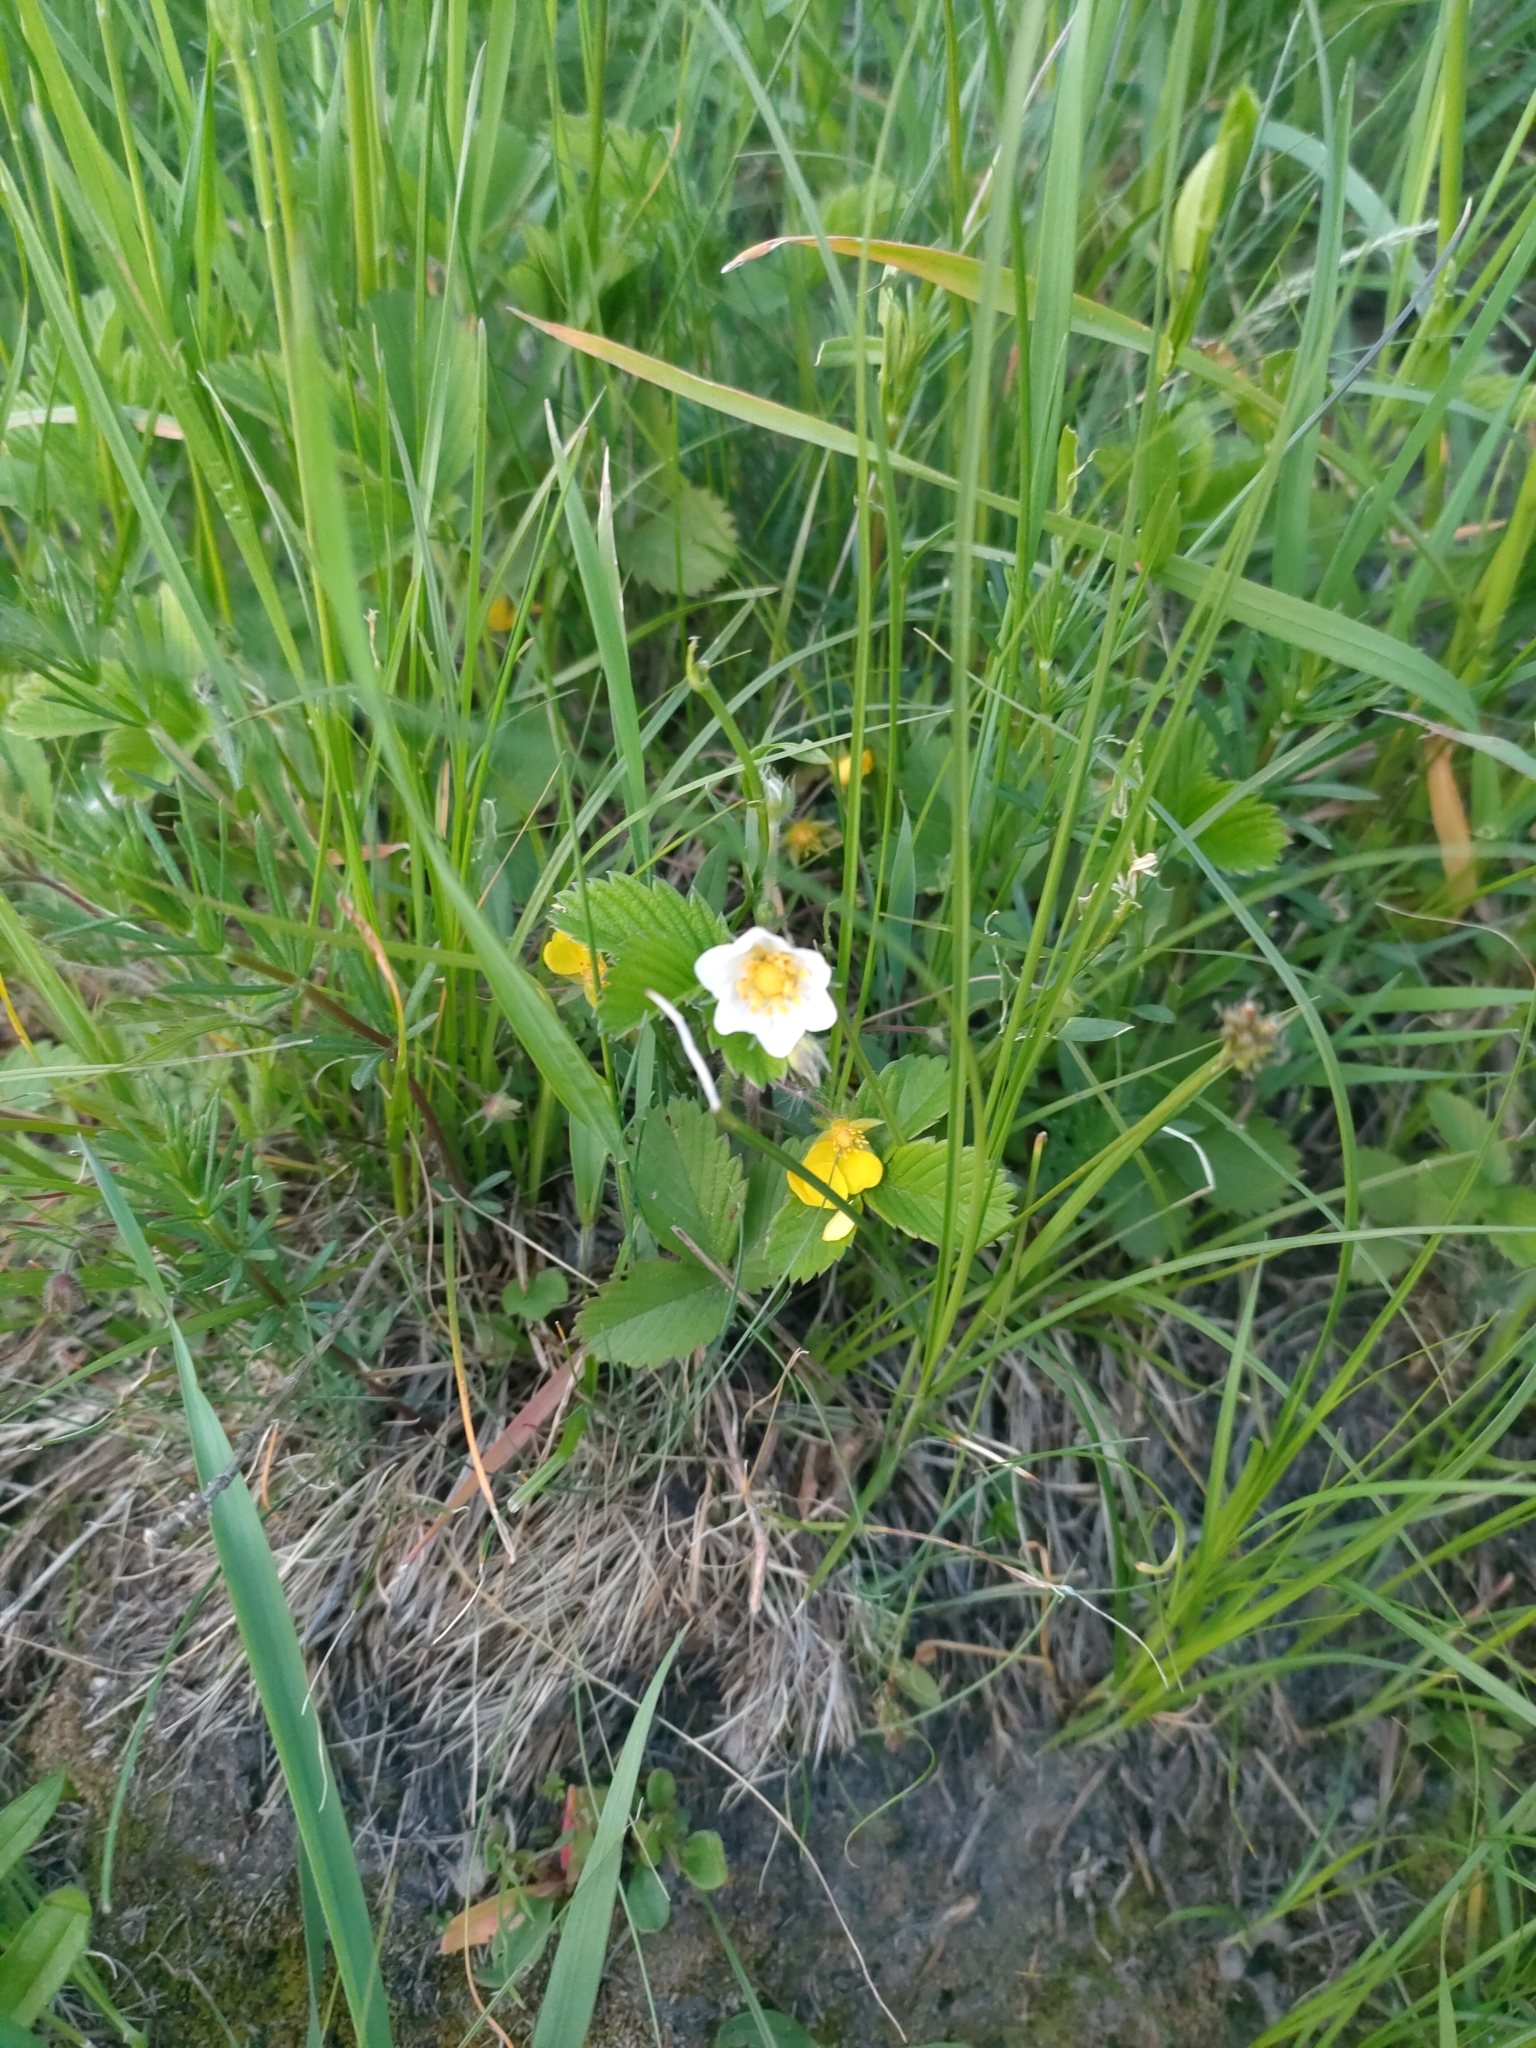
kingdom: Plantae
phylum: Tracheophyta
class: Magnoliopsida
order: Rosales
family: Rosaceae
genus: Fragaria
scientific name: Fragaria viridis
